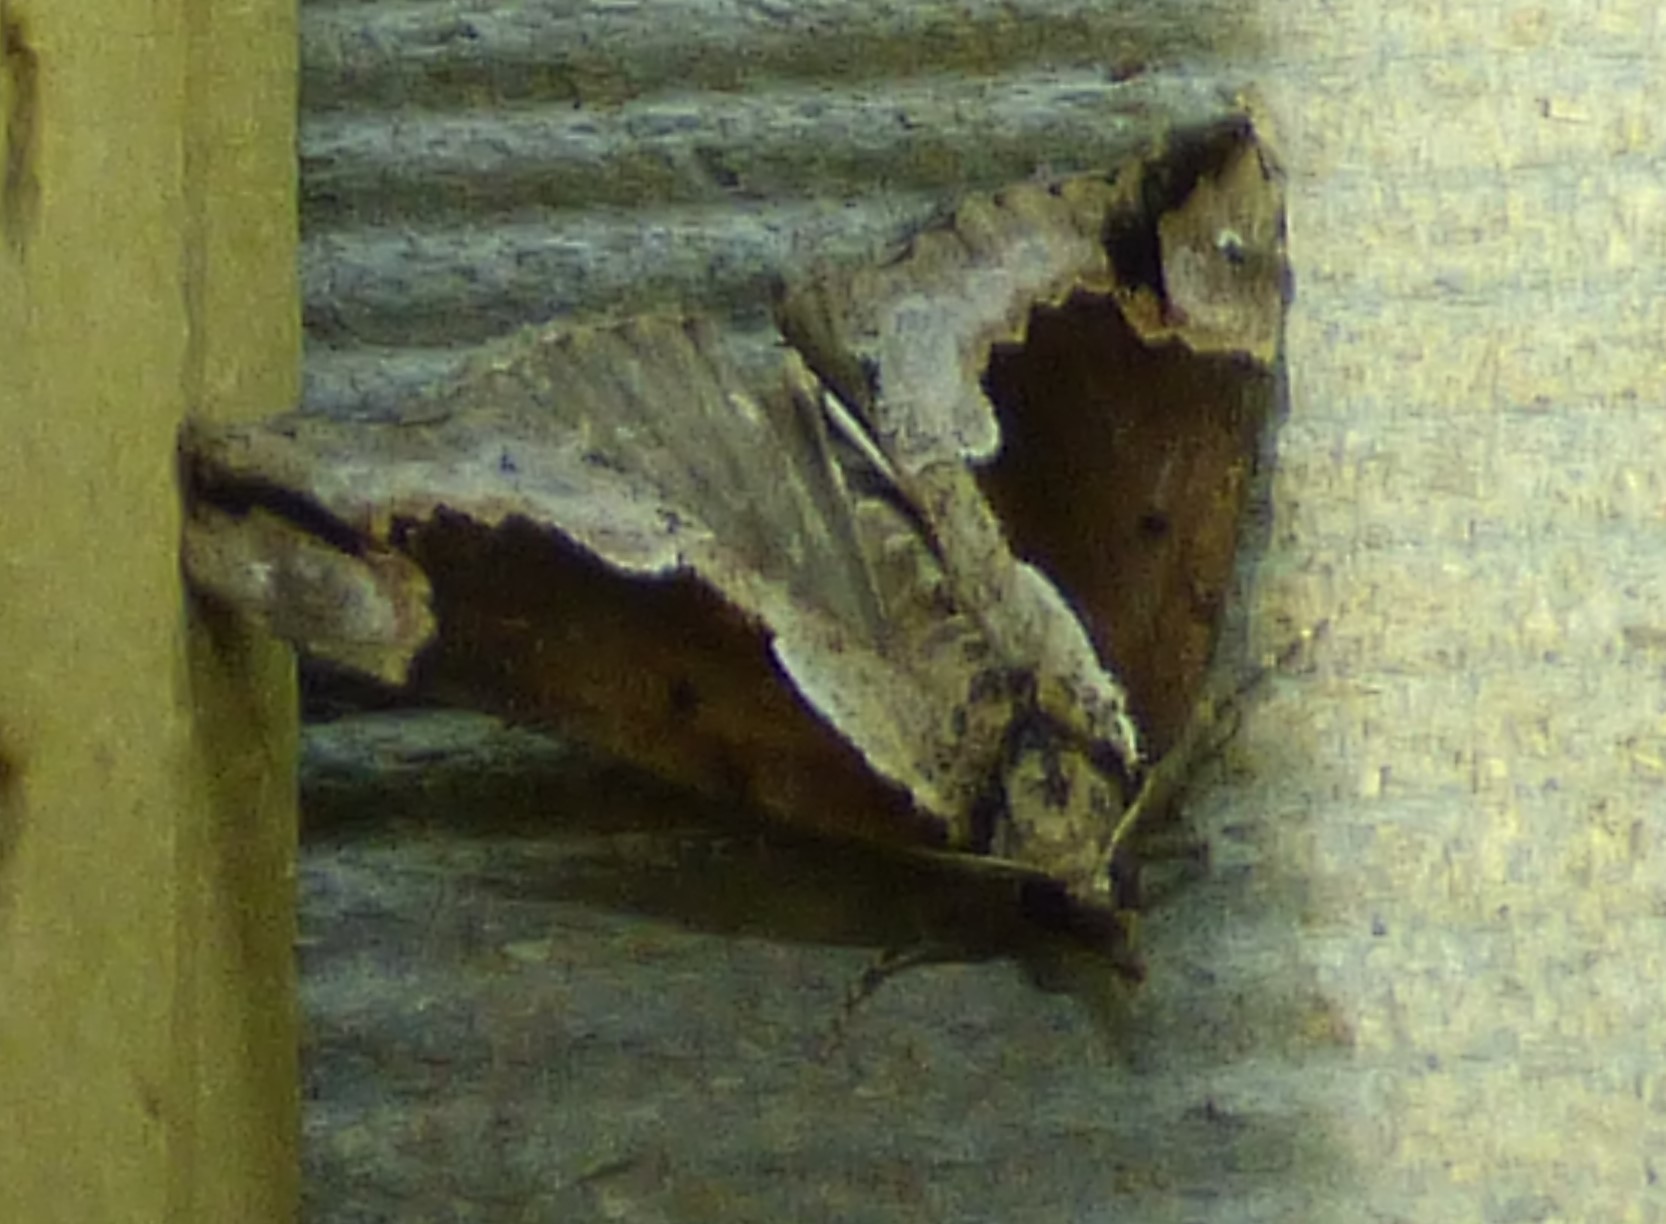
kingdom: Animalia
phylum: Arthropoda
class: Insecta
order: Lepidoptera
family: Erebidae
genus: Hypena
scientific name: Hypena baltimoralis
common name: Baltimore snout
